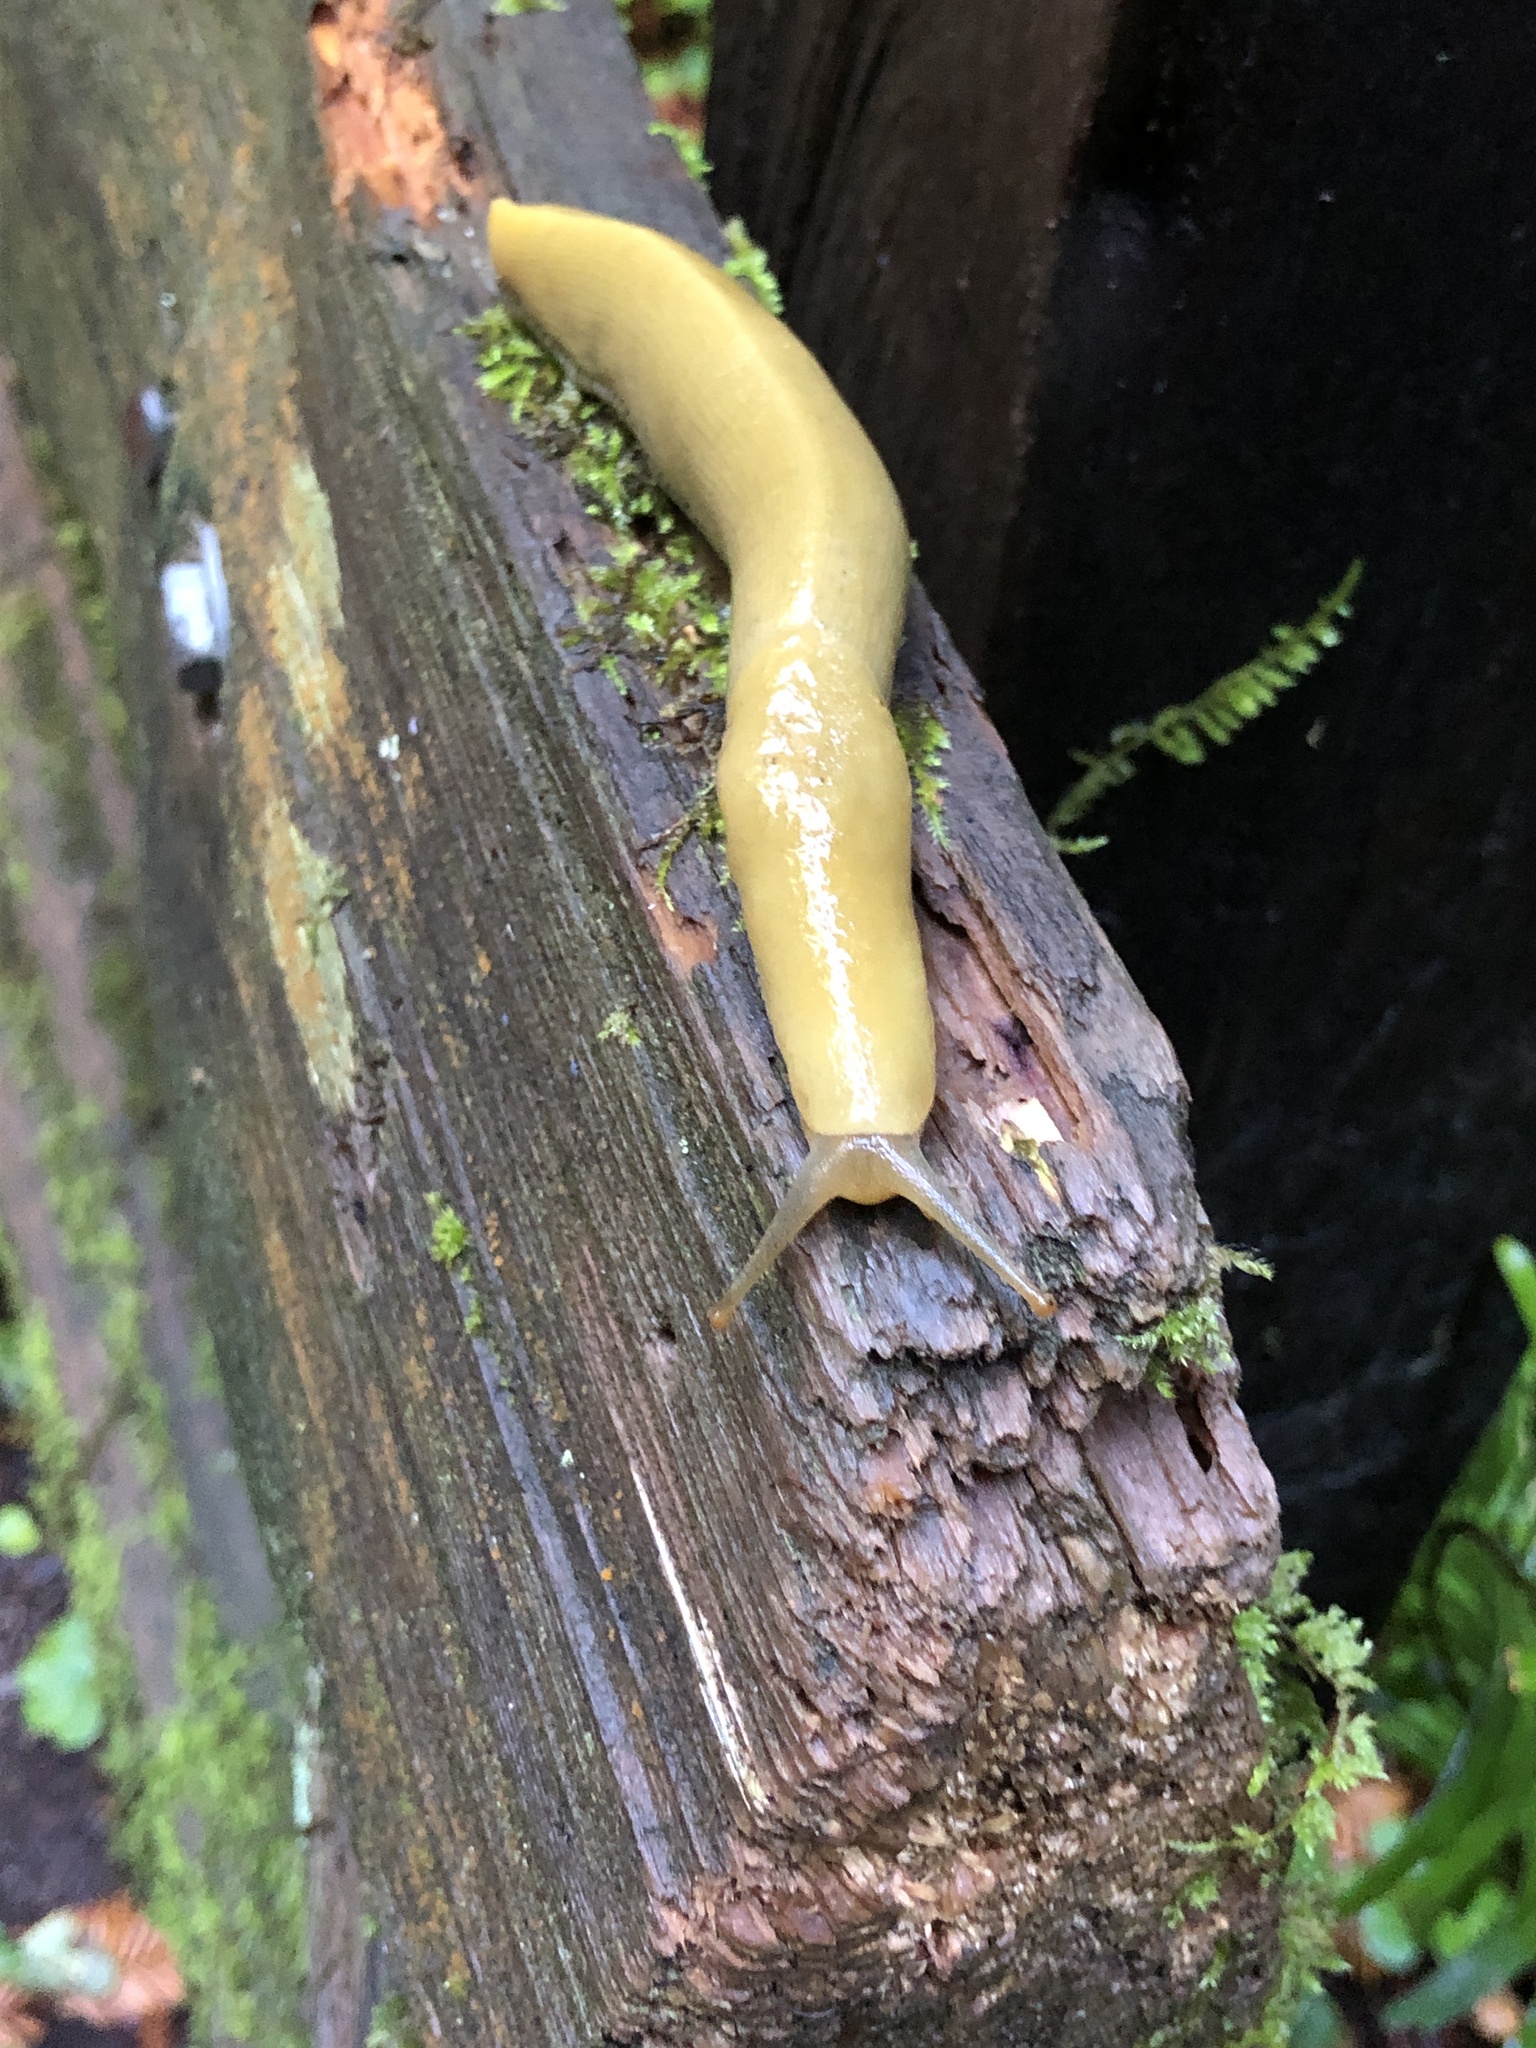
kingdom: Animalia
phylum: Mollusca
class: Gastropoda
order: Stylommatophora
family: Ariolimacidae
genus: Ariolimax
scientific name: Ariolimax buttoni
